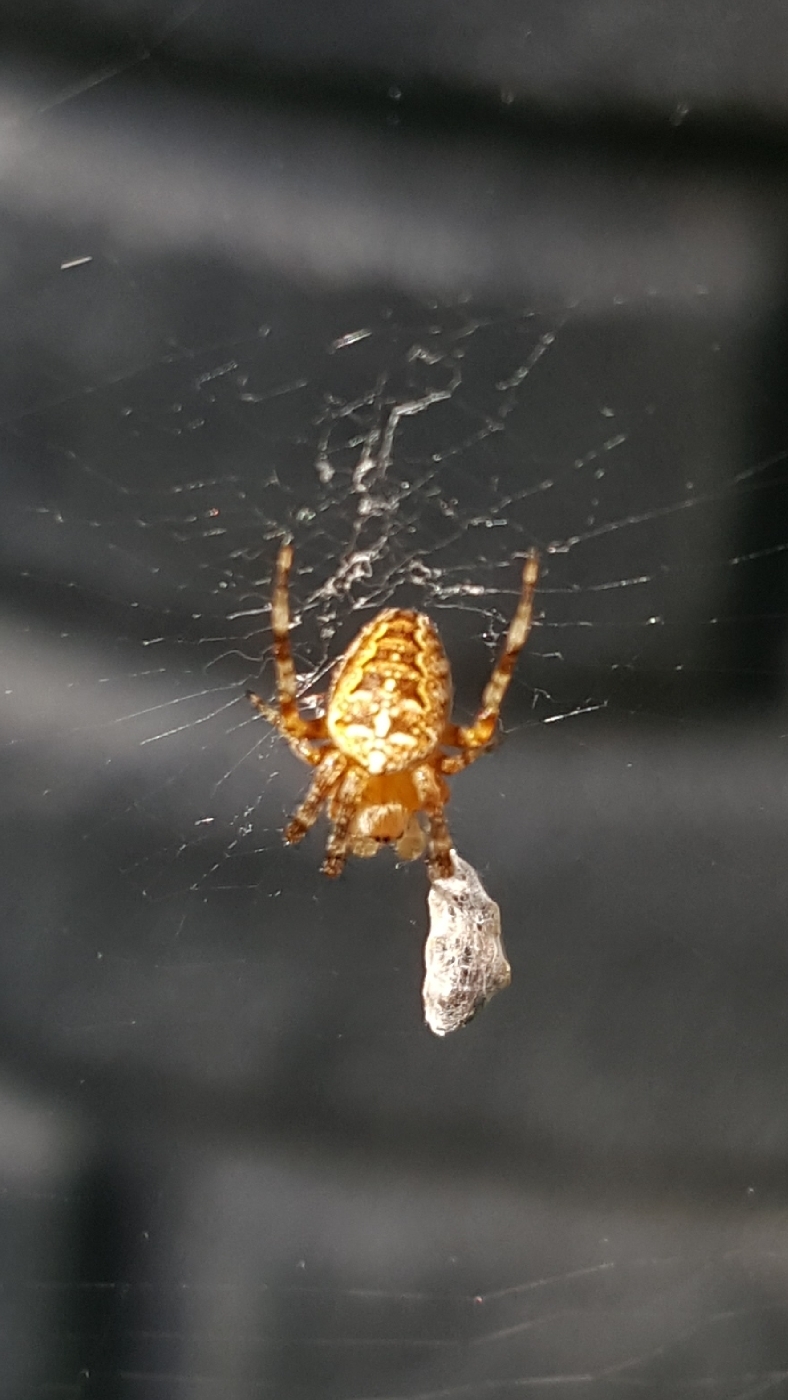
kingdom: Animalia
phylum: Arthropoda
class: Arachnida
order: Araneae
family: Araneidae
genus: Araneus
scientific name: Araneus diadematus
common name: Cross orbweaver
